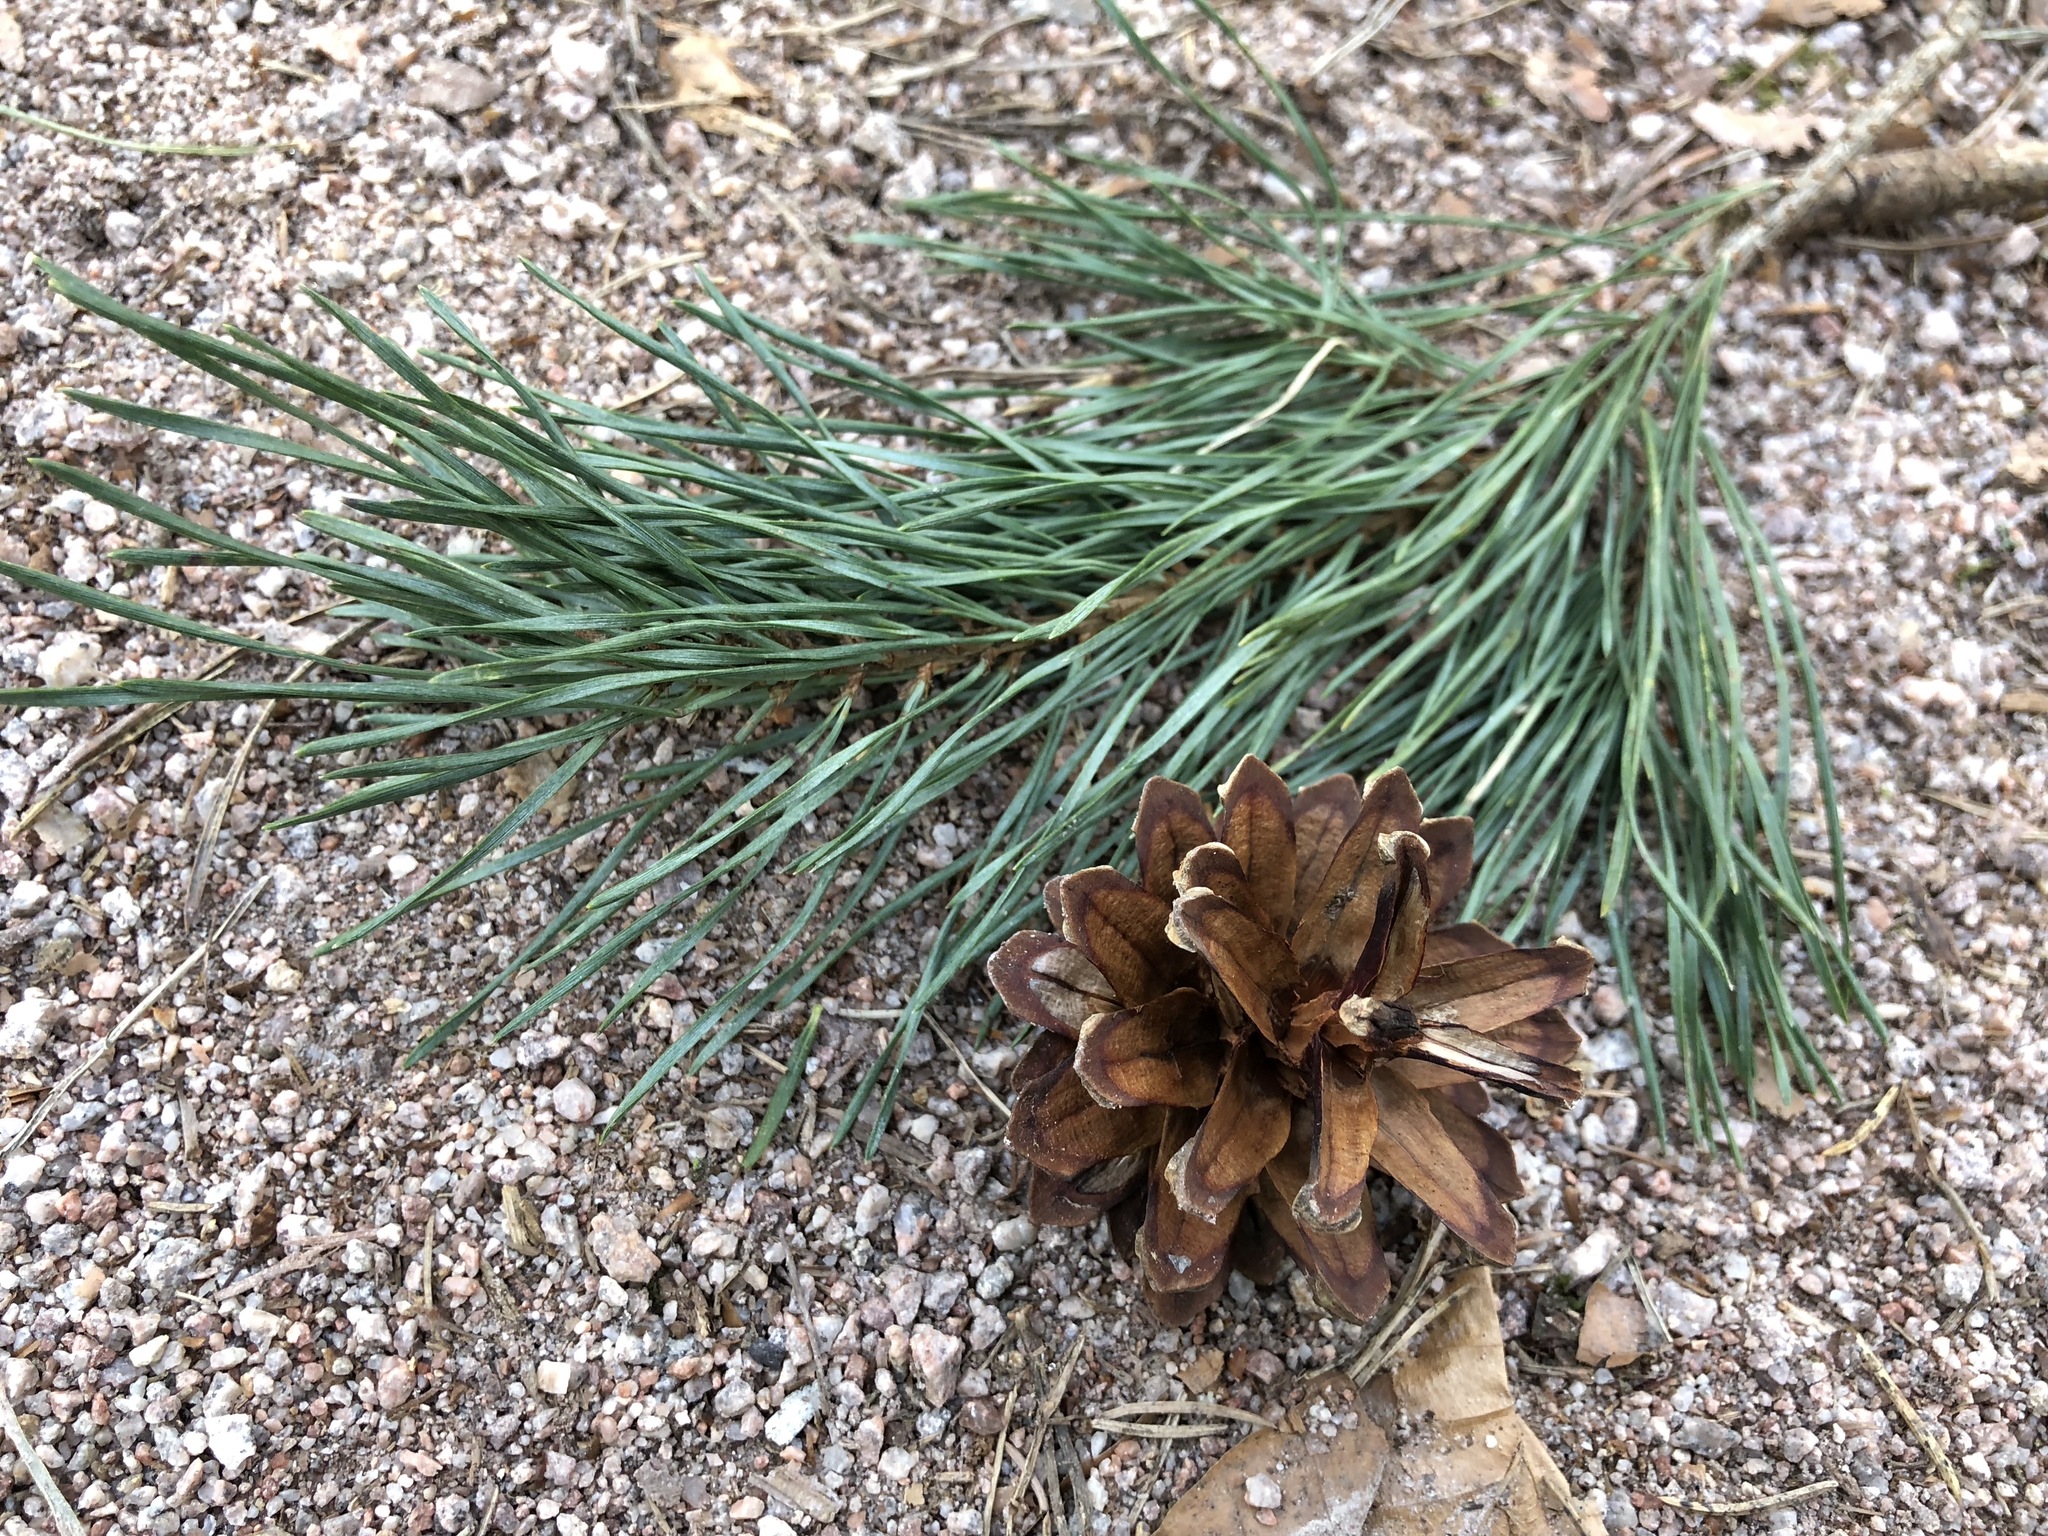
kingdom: Plantae
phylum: Tracheophyta
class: Pinopsida
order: Pinales
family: Pinaceae
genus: Pinus
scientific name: Pinus sylvestris
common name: Scots pine
